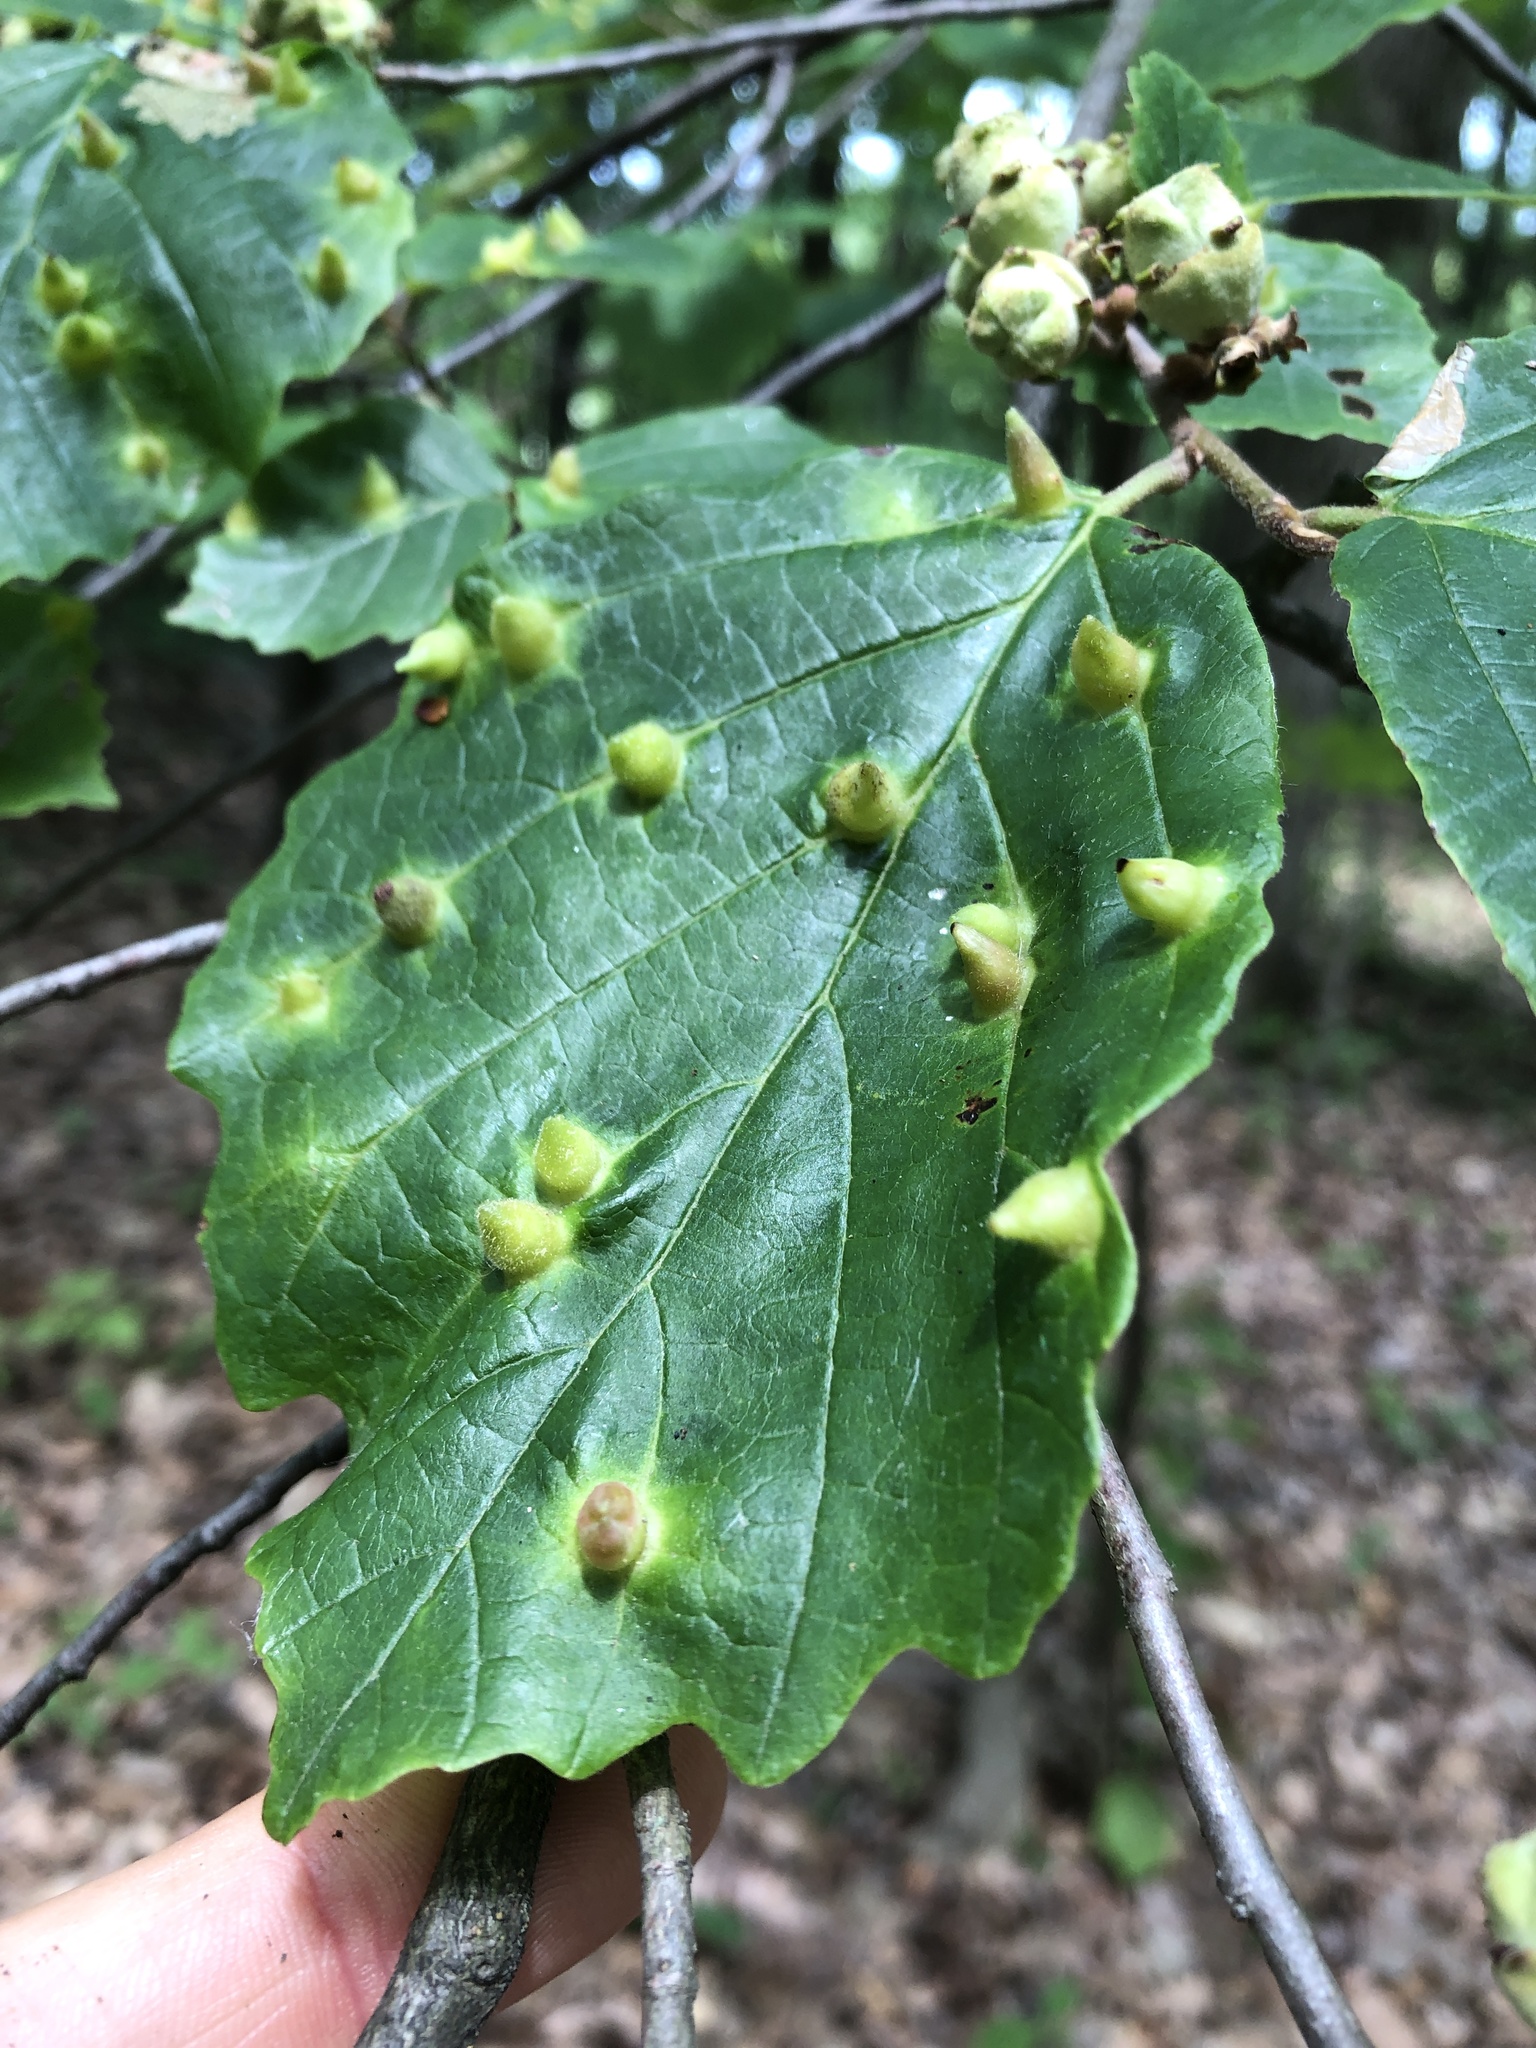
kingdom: Animalia
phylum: Arthropoda
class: Insecta
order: Hemiptera
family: Aphididae
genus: Hormaphis
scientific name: Hormaphis hamamelidis
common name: Witch-hazel cone gall aphid
